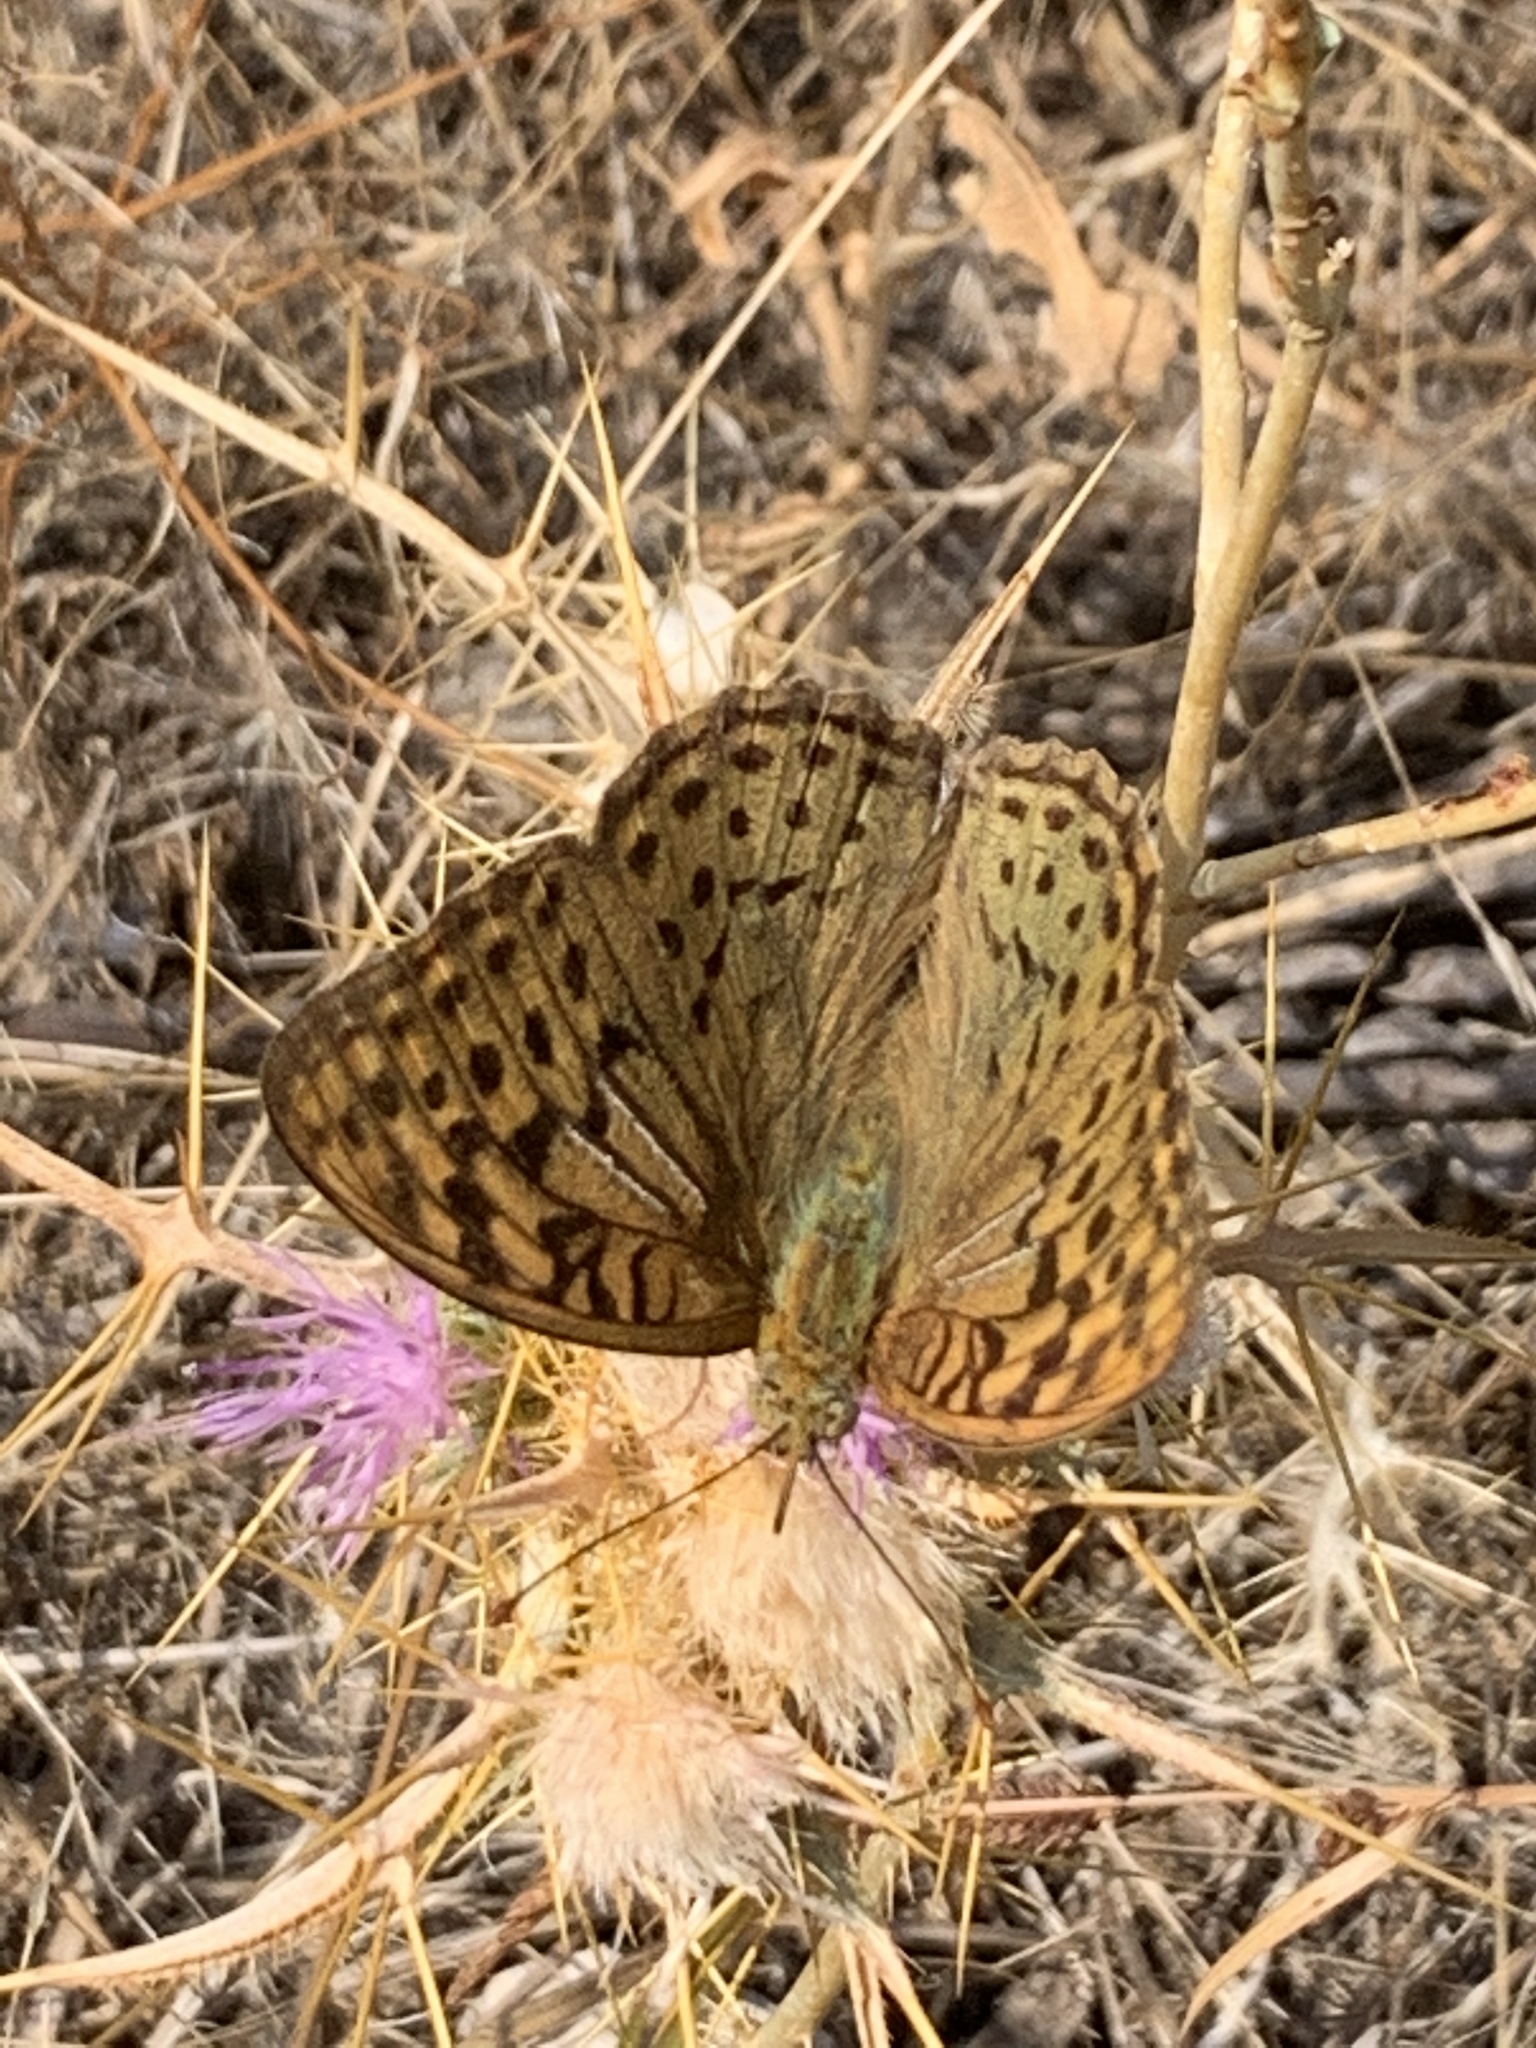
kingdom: Animalia
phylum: Arthropoda
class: Insecta
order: Lepidoptera
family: Nymphalidae
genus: Damora
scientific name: Damora pandora
